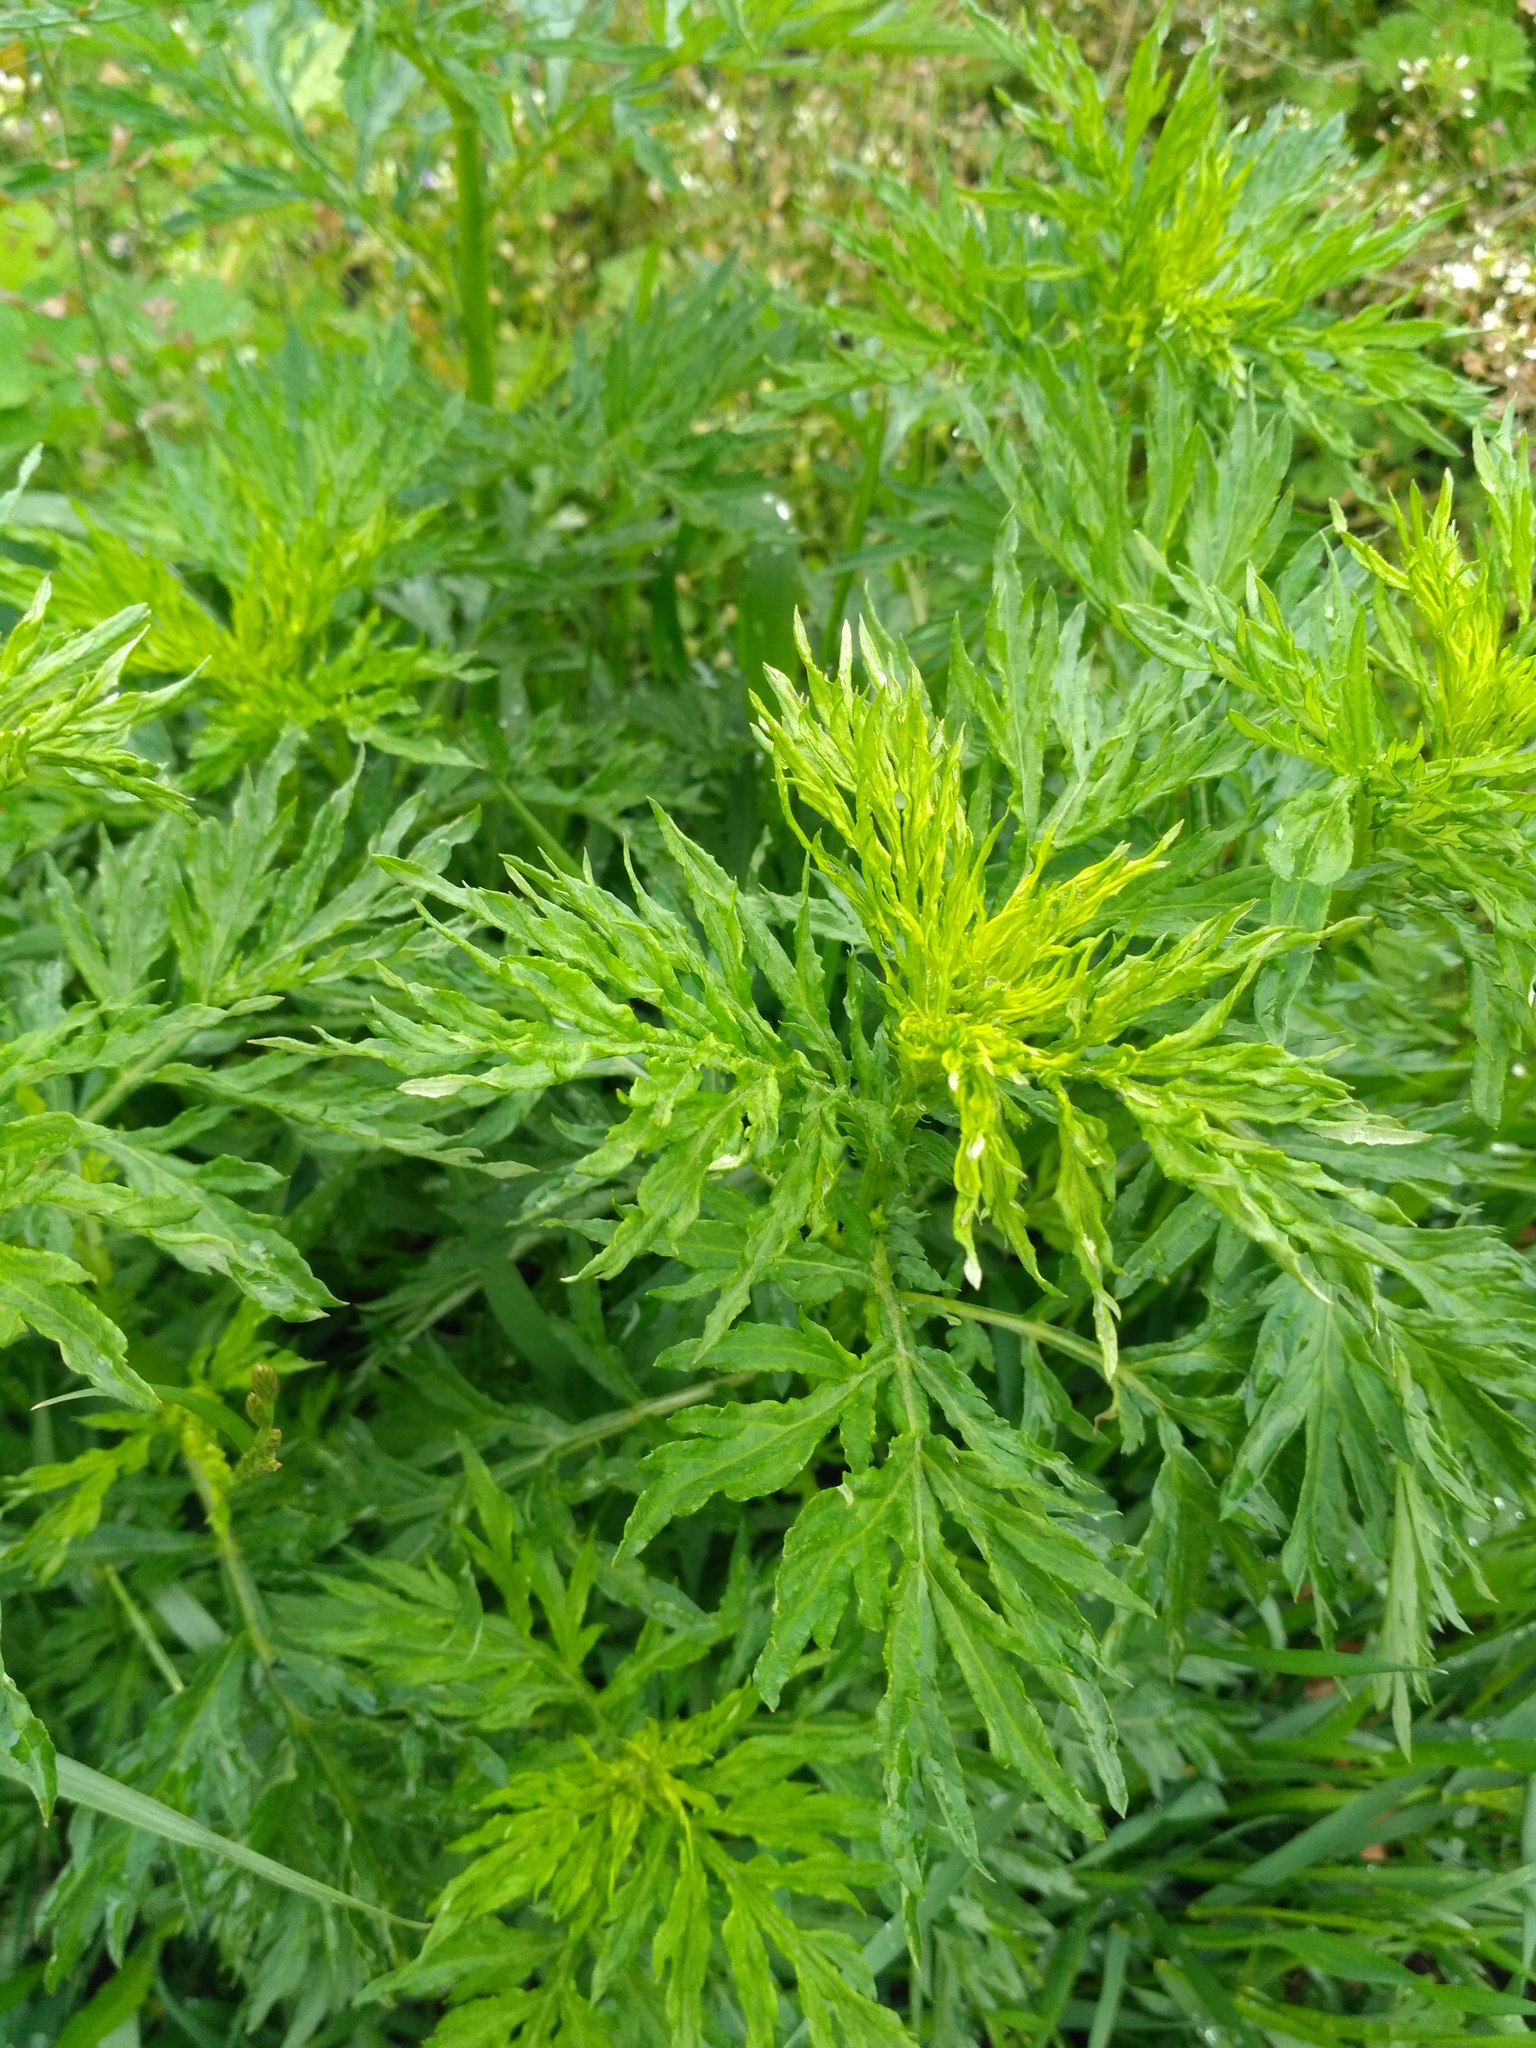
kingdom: Plantae
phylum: Tracheophyta
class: Magnoliopsida
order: Asterales
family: Asteraceae
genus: Artemisia
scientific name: Artemisia vulgaris
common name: Mugwort
